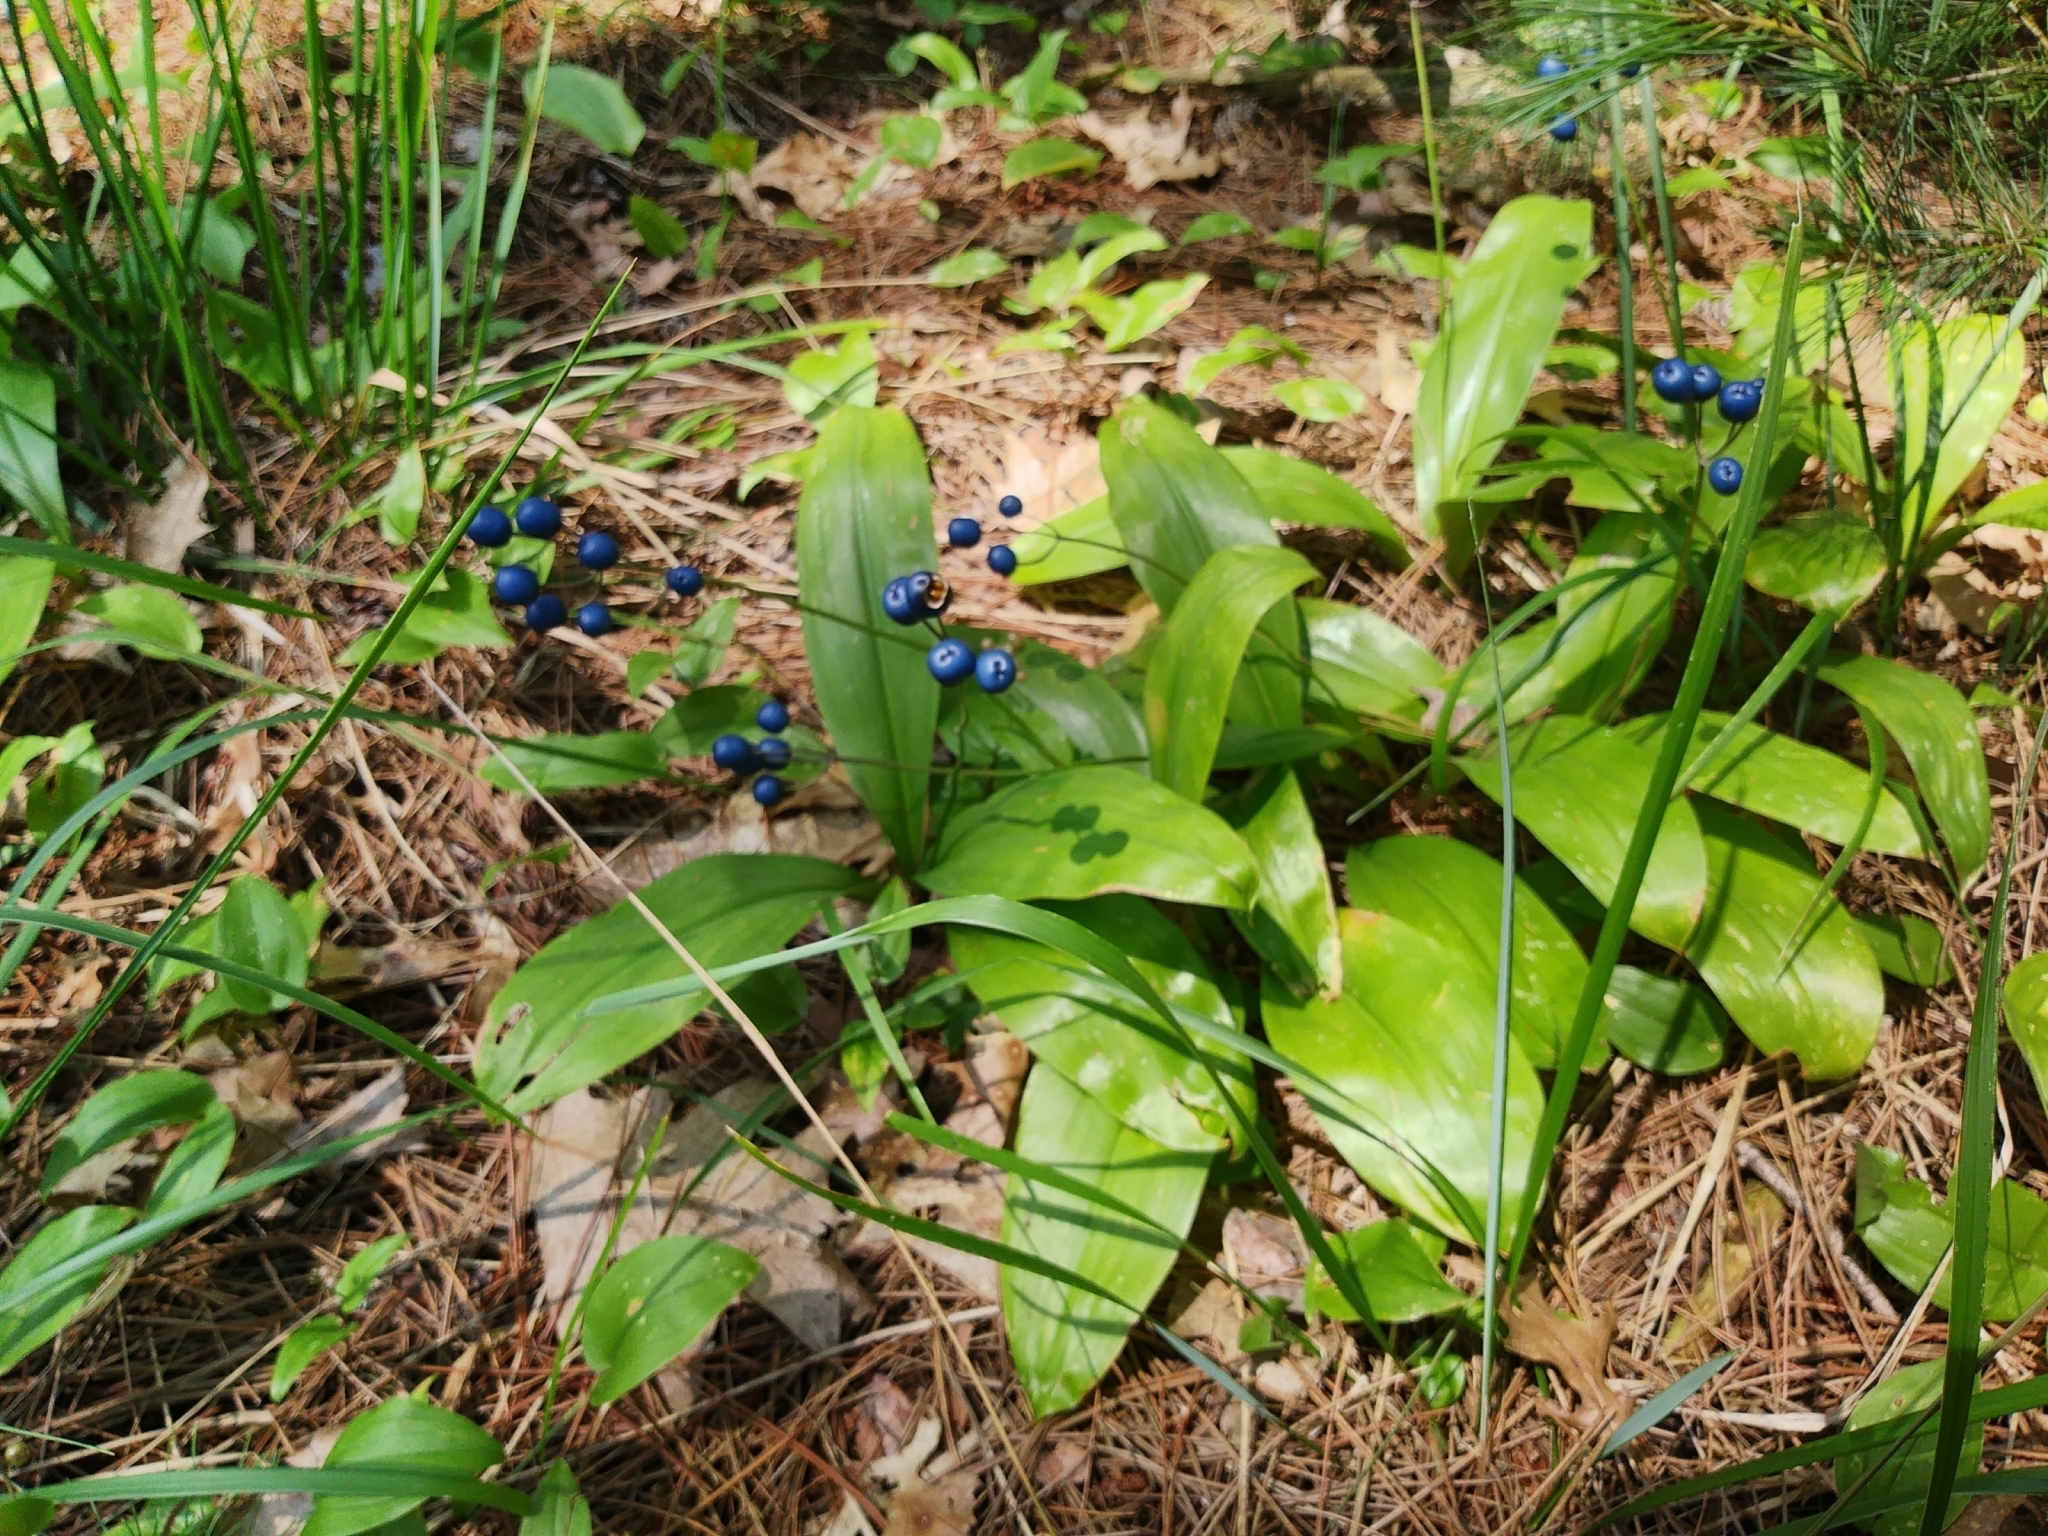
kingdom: Plantae
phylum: Tracheophyta
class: Liliopsida
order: Liliales
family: Liliaceae
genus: Clintonia
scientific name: Clintonia borealis
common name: Yellow clintonia
